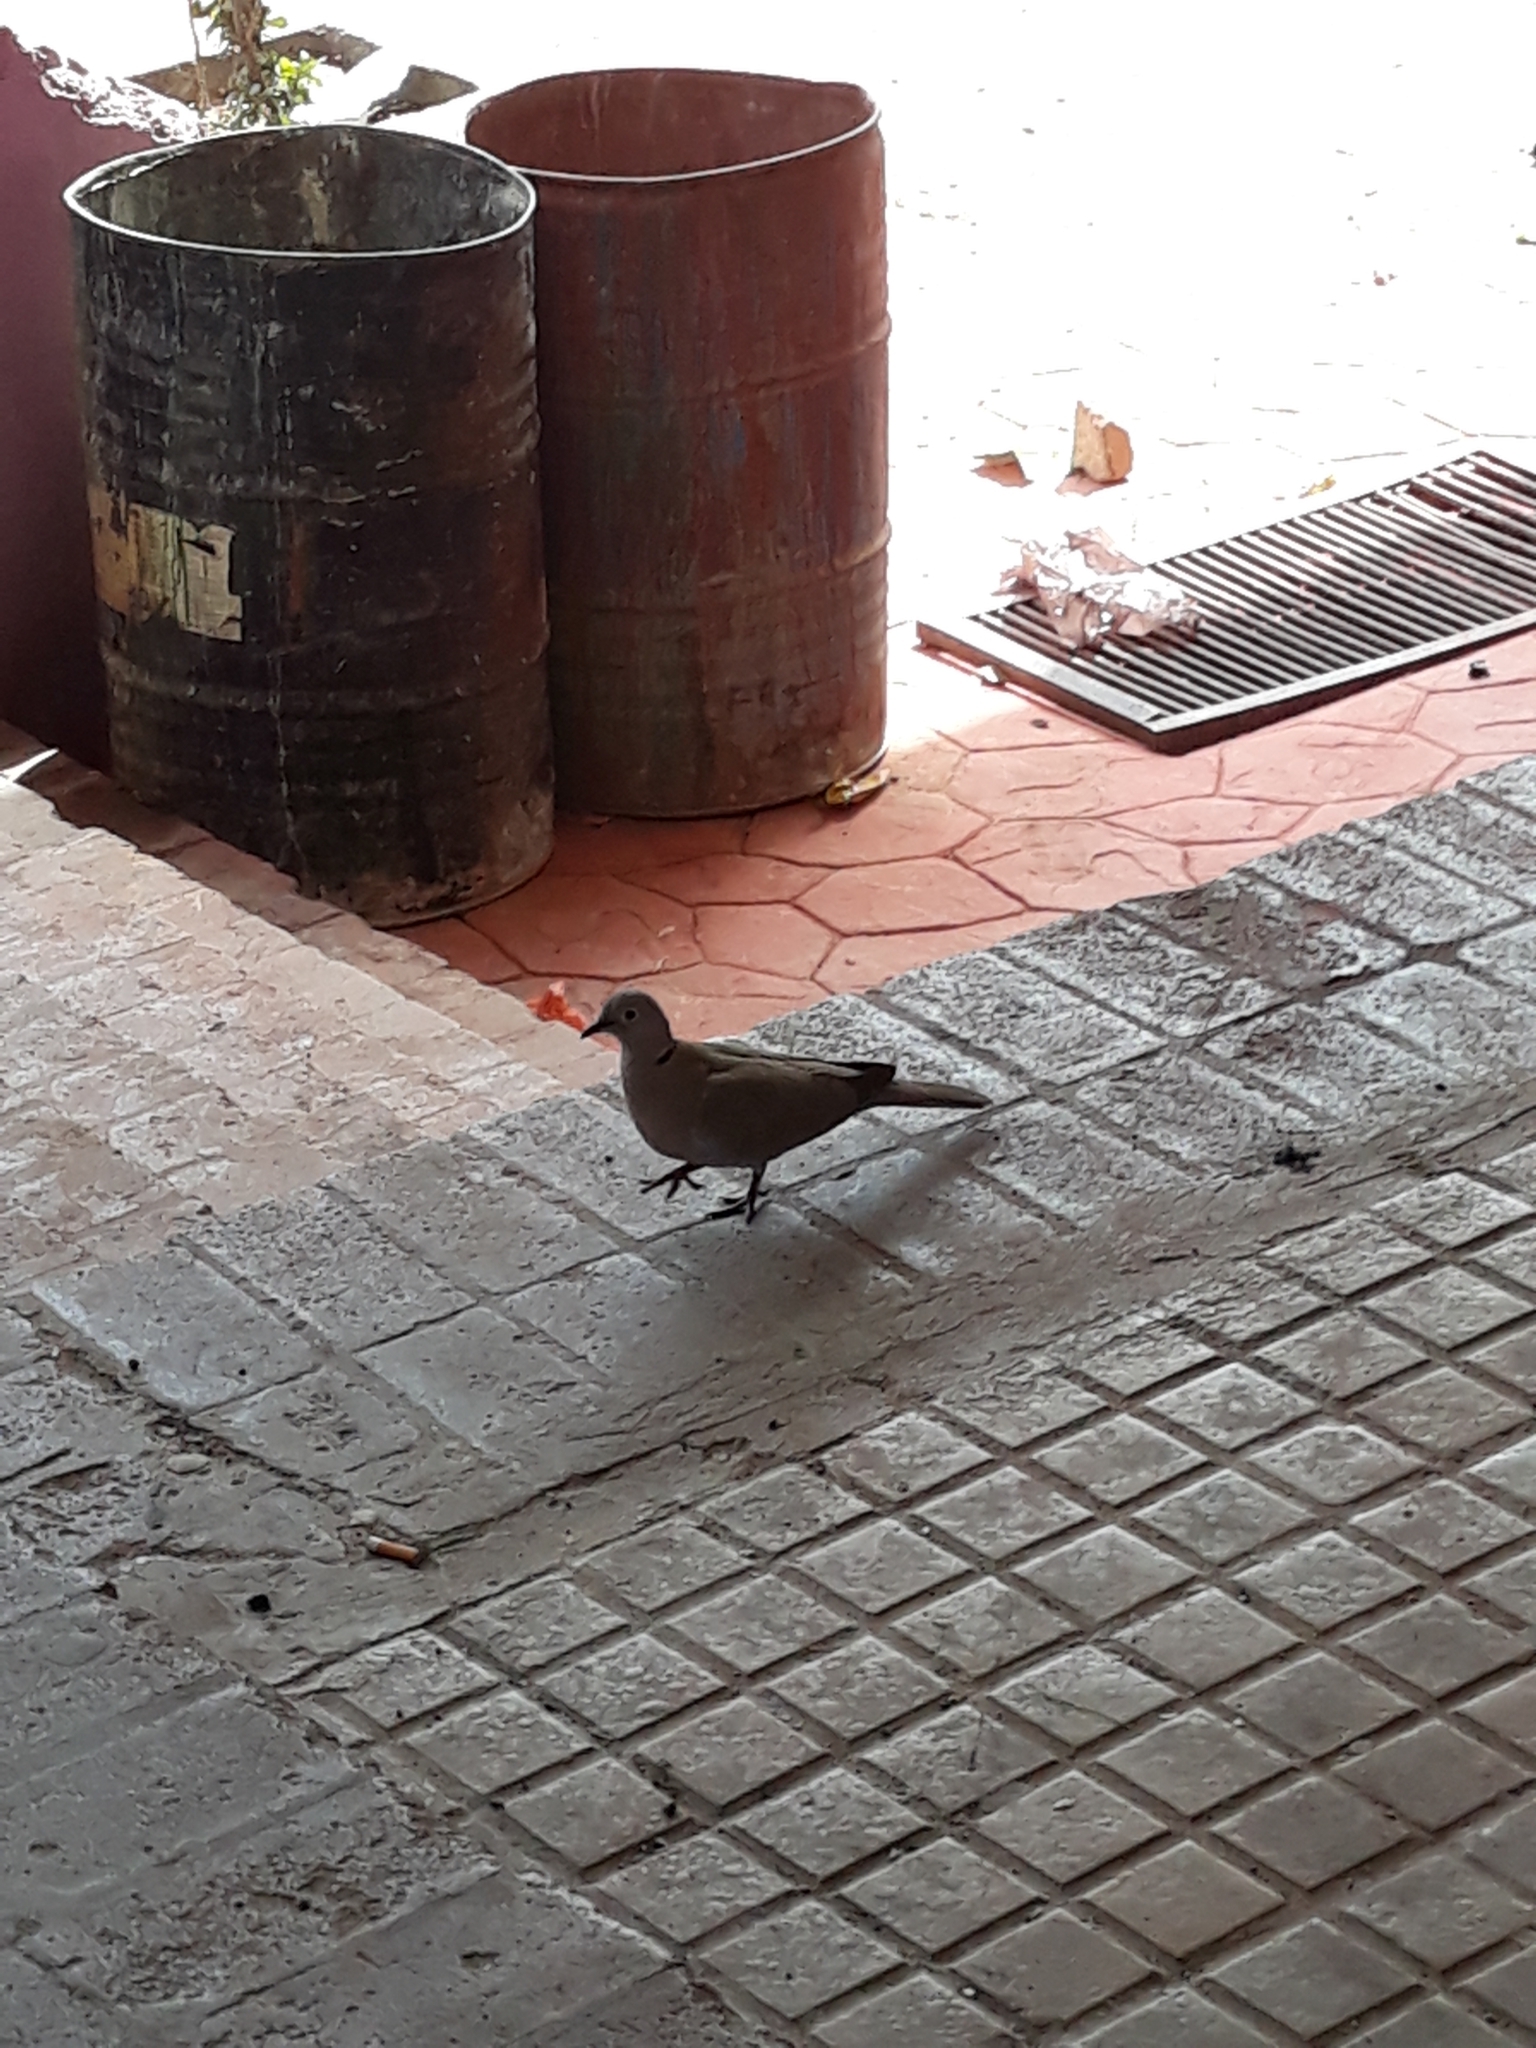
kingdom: Animalia
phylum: Chordata
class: Aves
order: Columbiformes
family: Columbidae
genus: Streptopelia
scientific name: Streptopelia decaocto
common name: Eurasian collared dove
